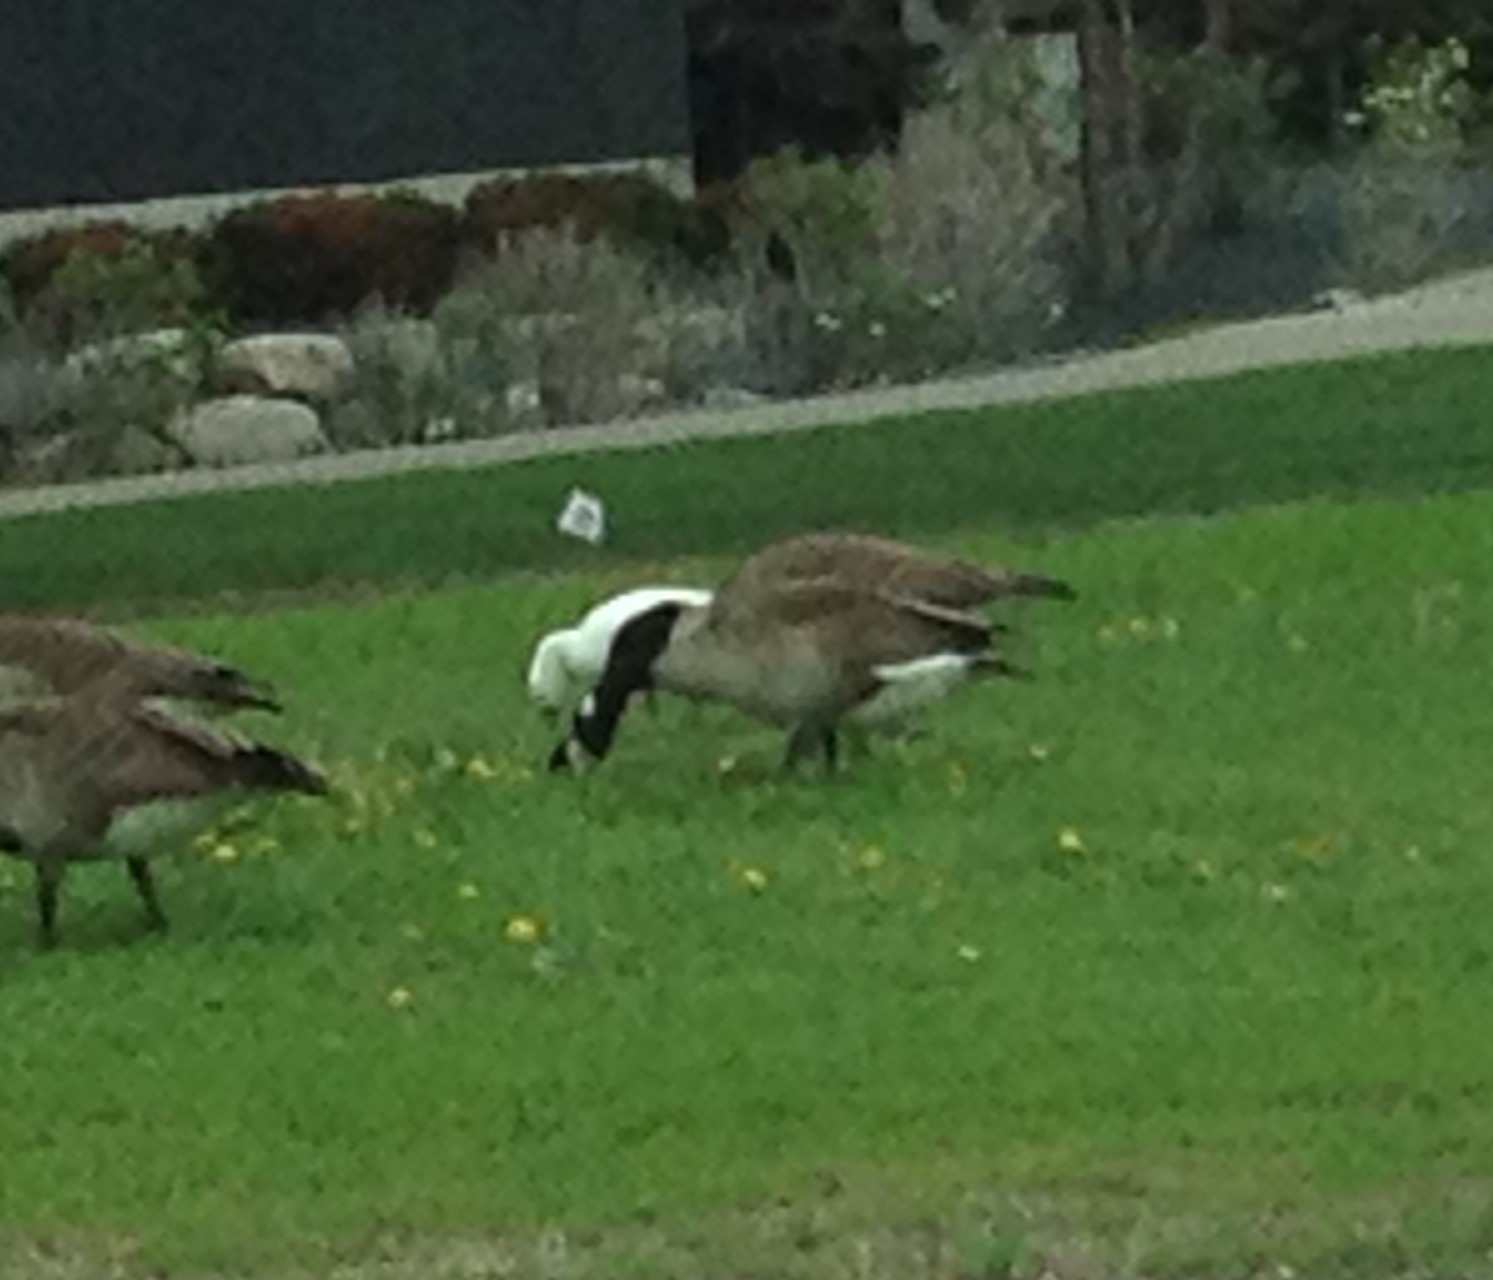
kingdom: Animalia
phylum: Chordata
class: Aves
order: Anseriformes
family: Anatidae
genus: Anser
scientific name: Anser rossii
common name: Ross's goose
